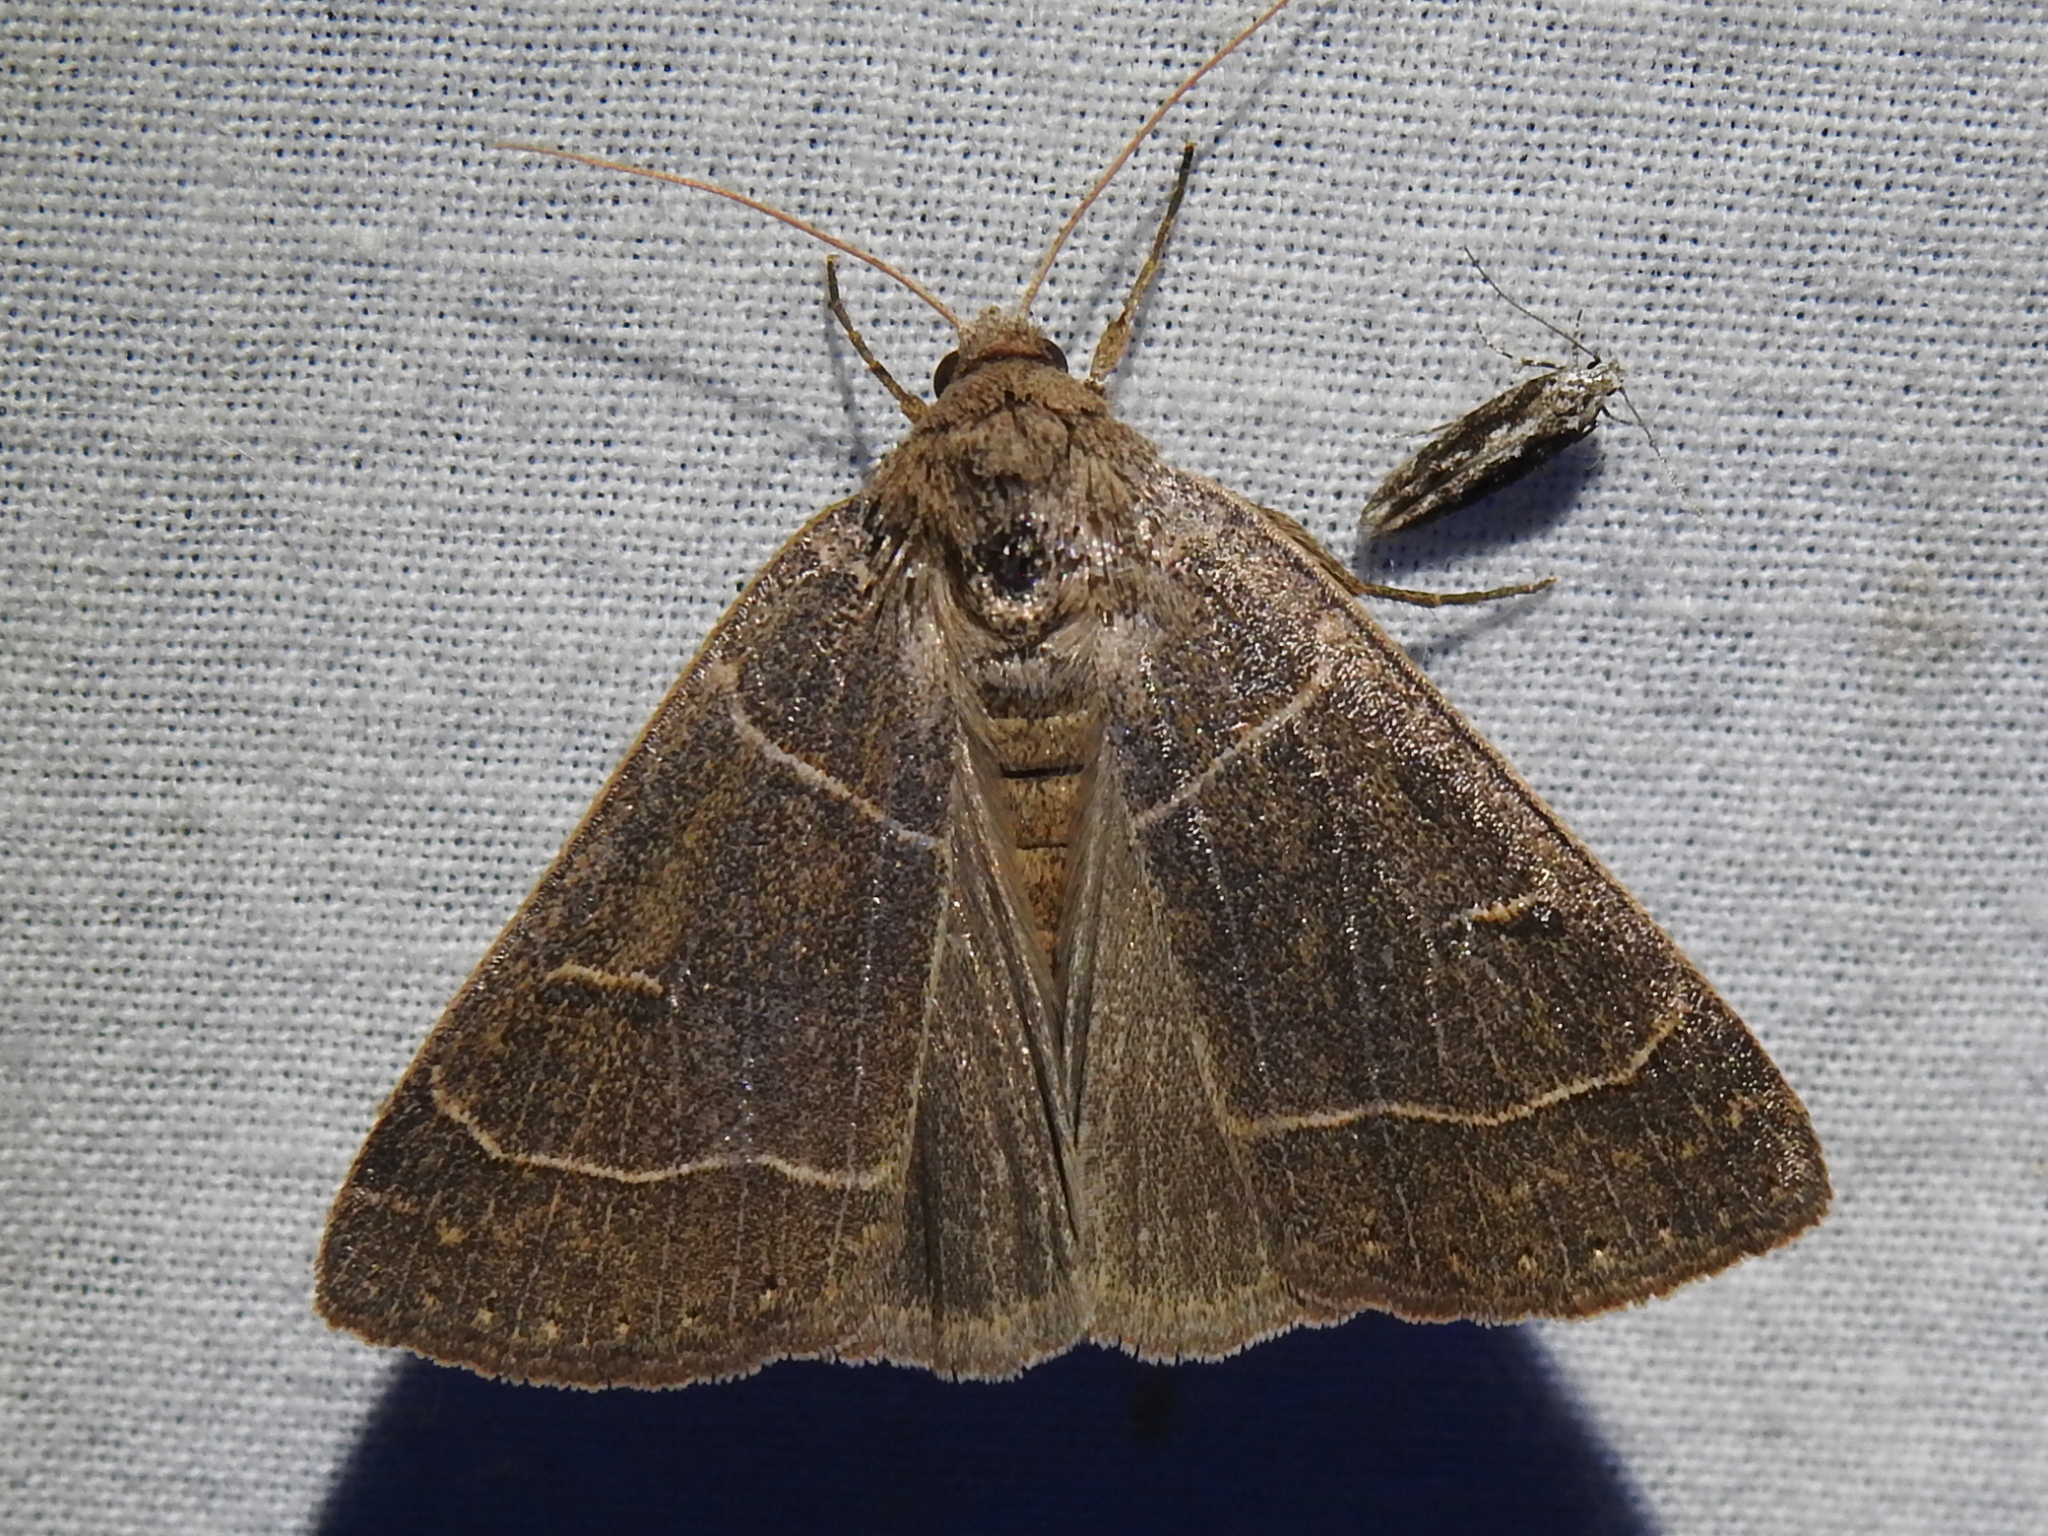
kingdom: Animalia
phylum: Arthropoda
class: Insecta
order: Lepidoptera
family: Erebidae
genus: Phoberia
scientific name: Phoberia atomaris
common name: Common oak moth
